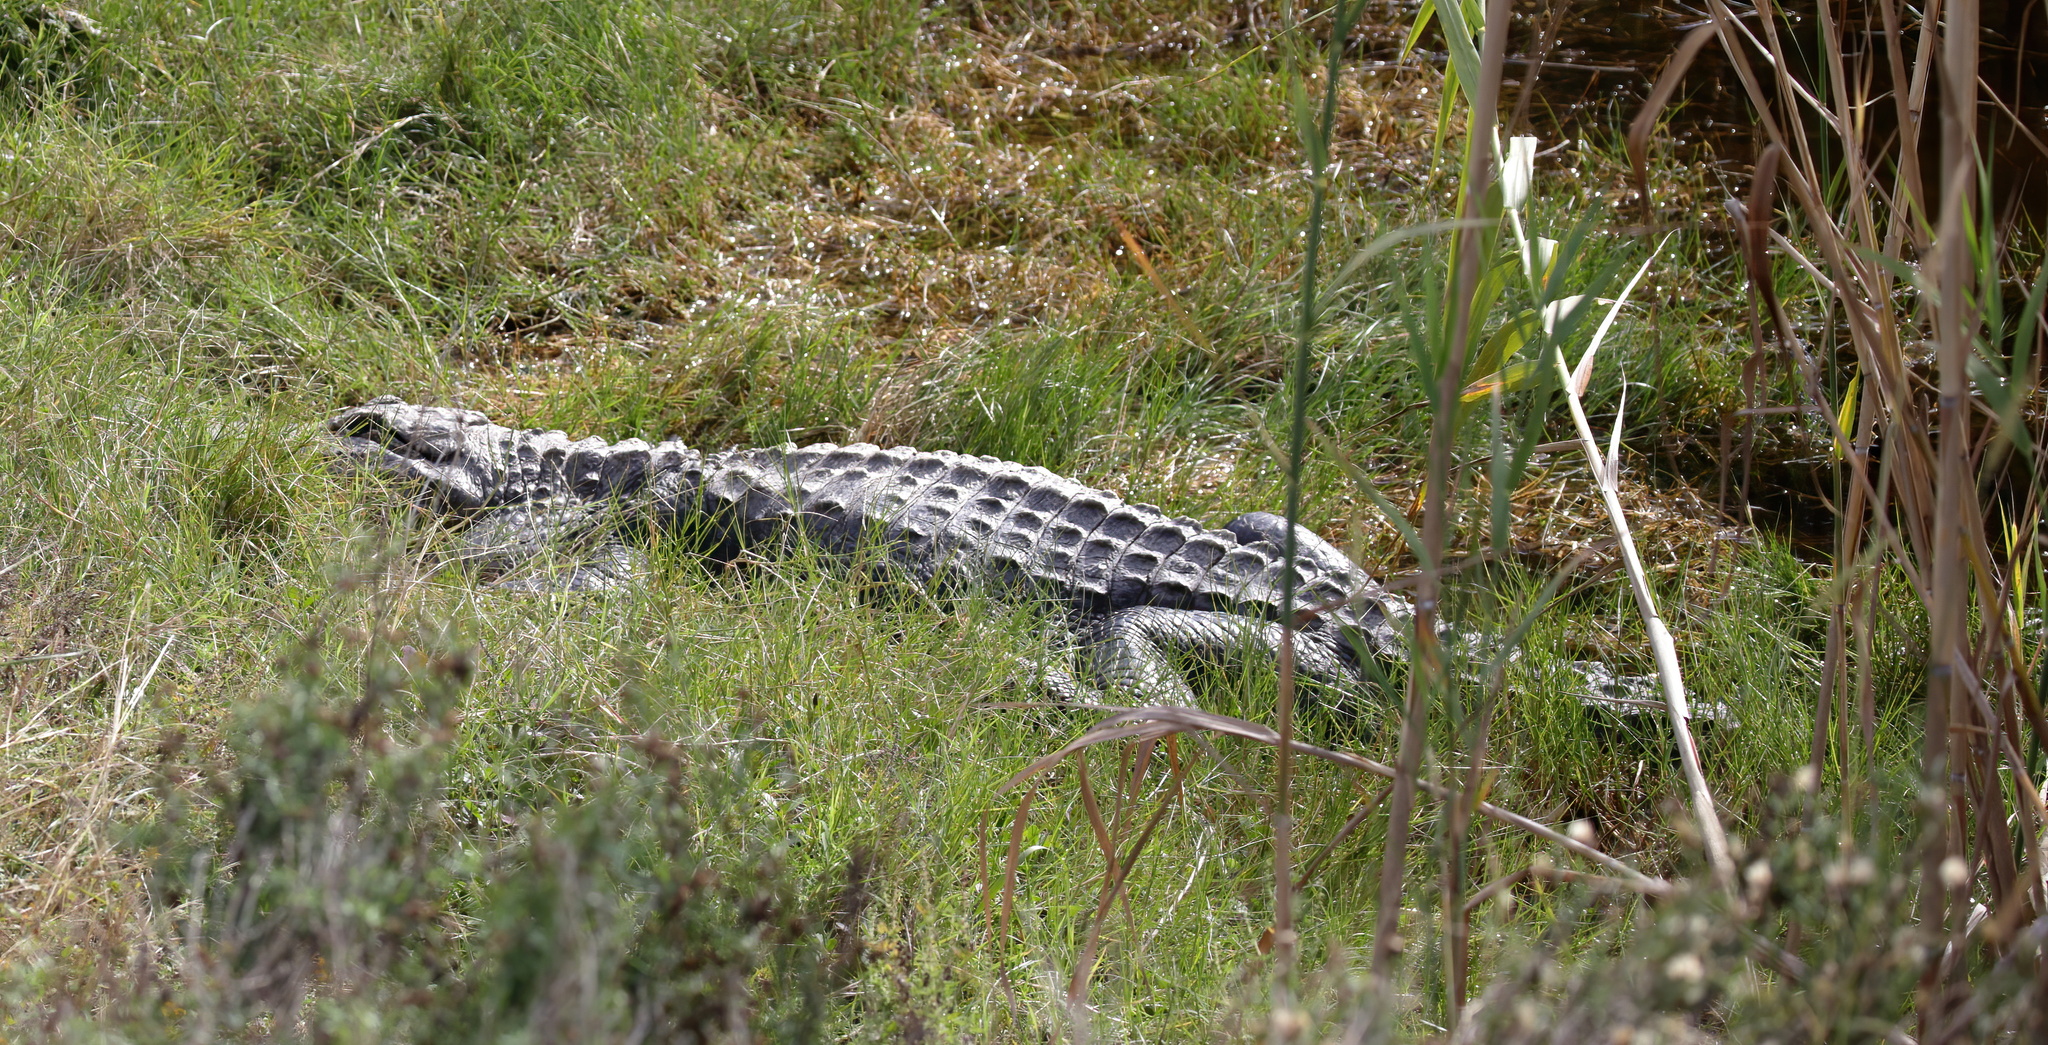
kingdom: Animalia
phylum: Chordata
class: Crocodylia
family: Alligatoridae
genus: Alligator
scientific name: Alligator mississippiensis
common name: American alligator
